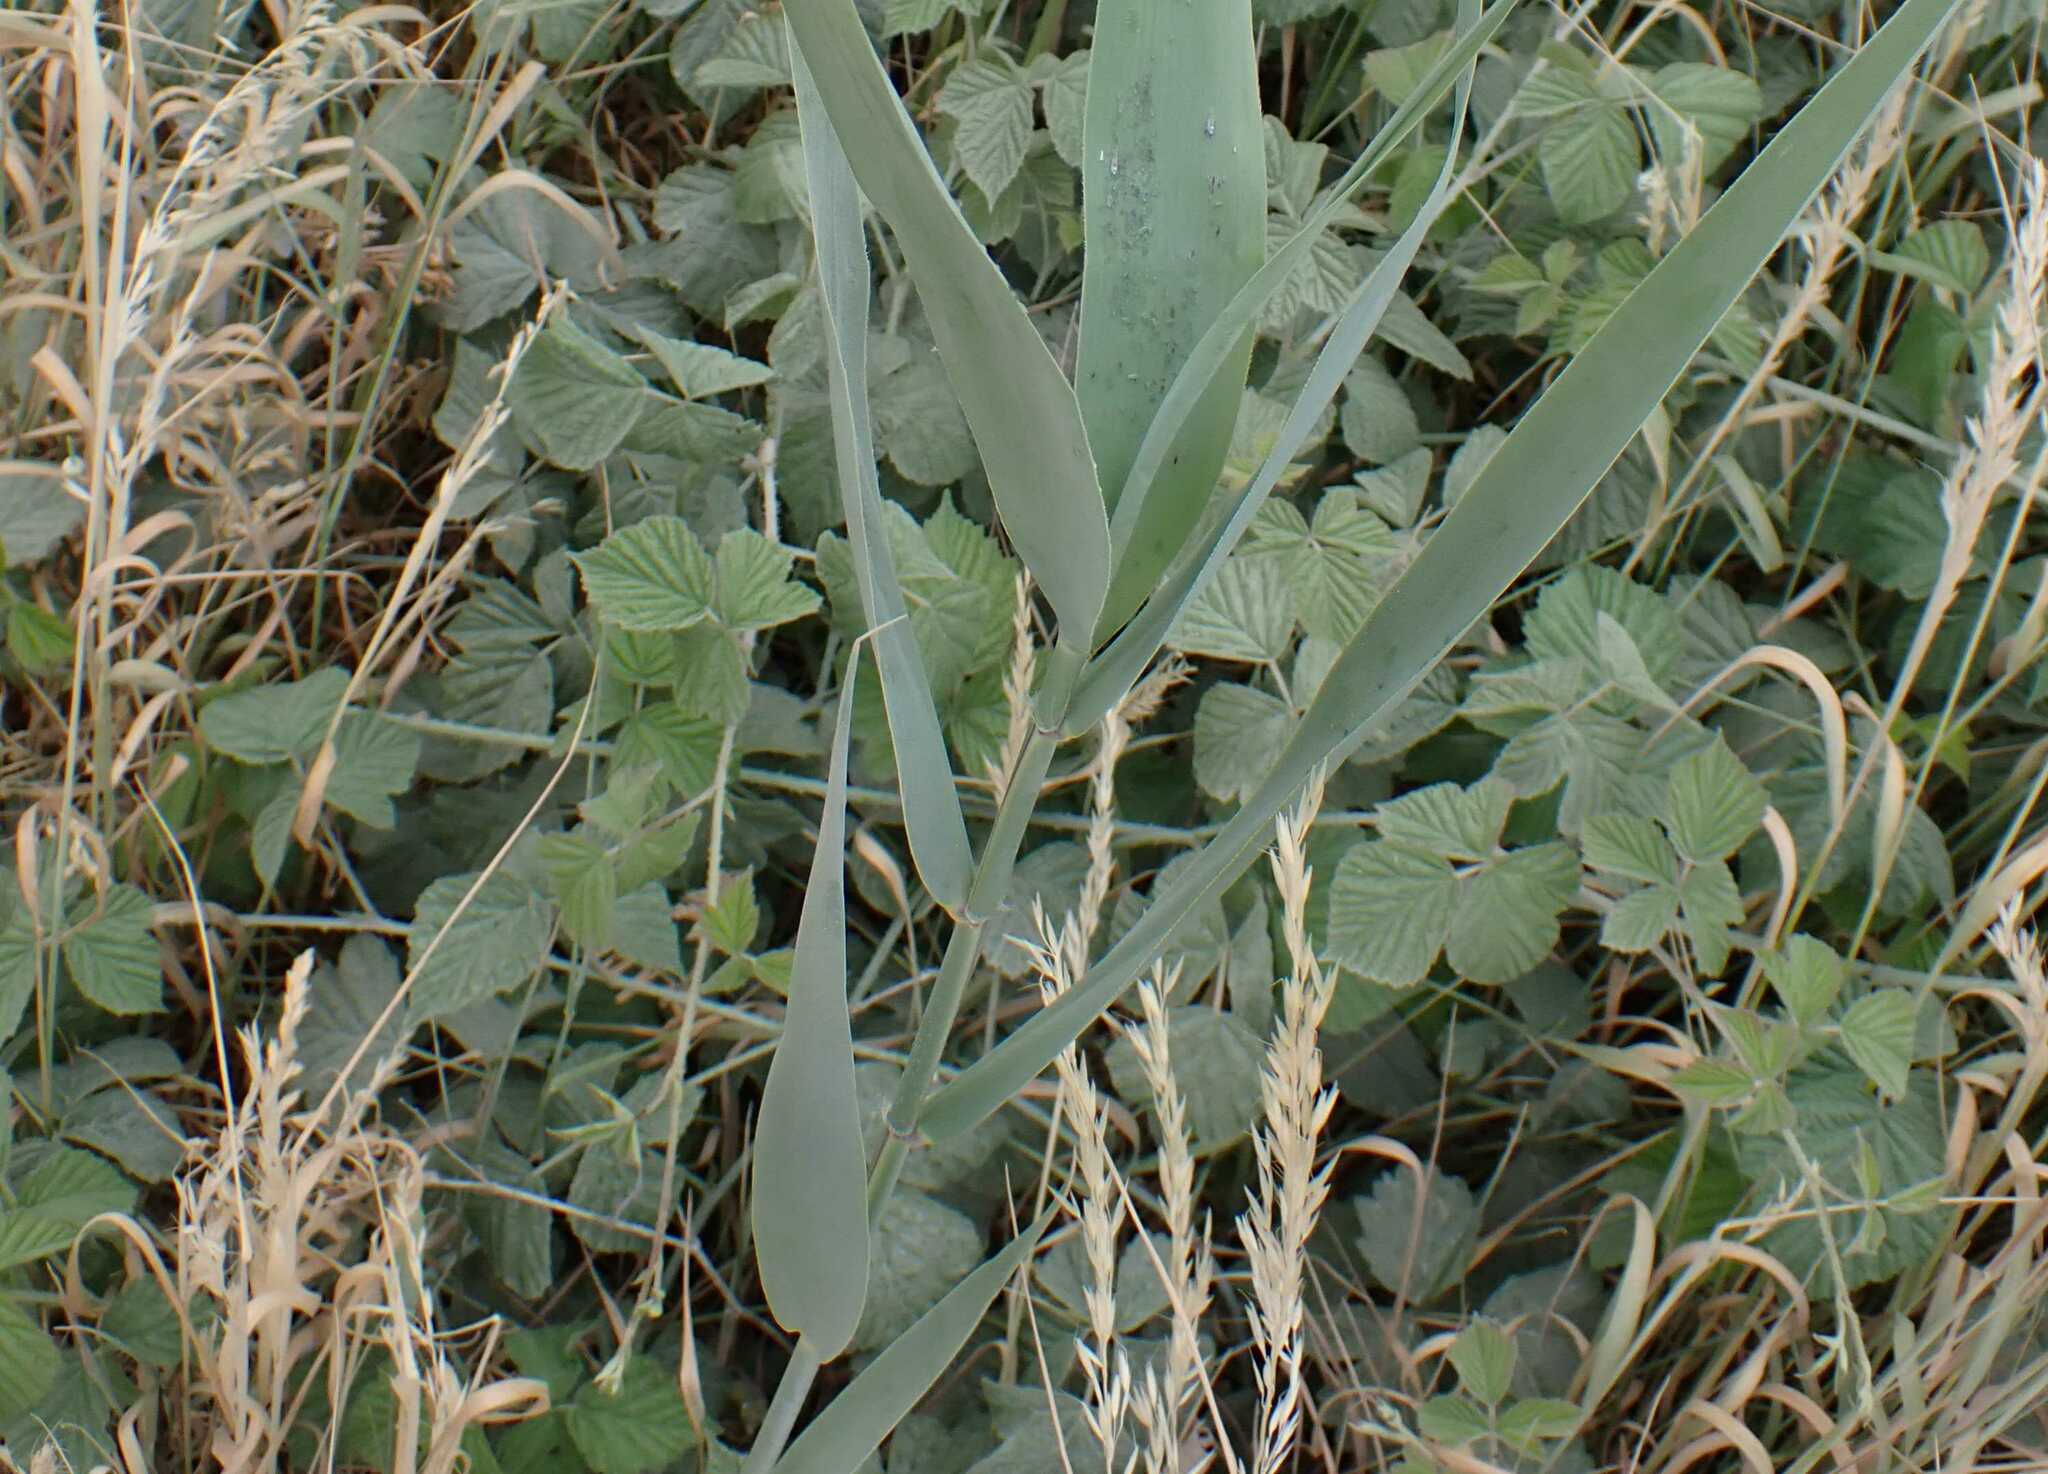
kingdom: Plantae
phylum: Tracheophyta
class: Liliopsida
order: Poales
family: Poaceae
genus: Phragmites
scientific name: Phragmites australis
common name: Common reed
